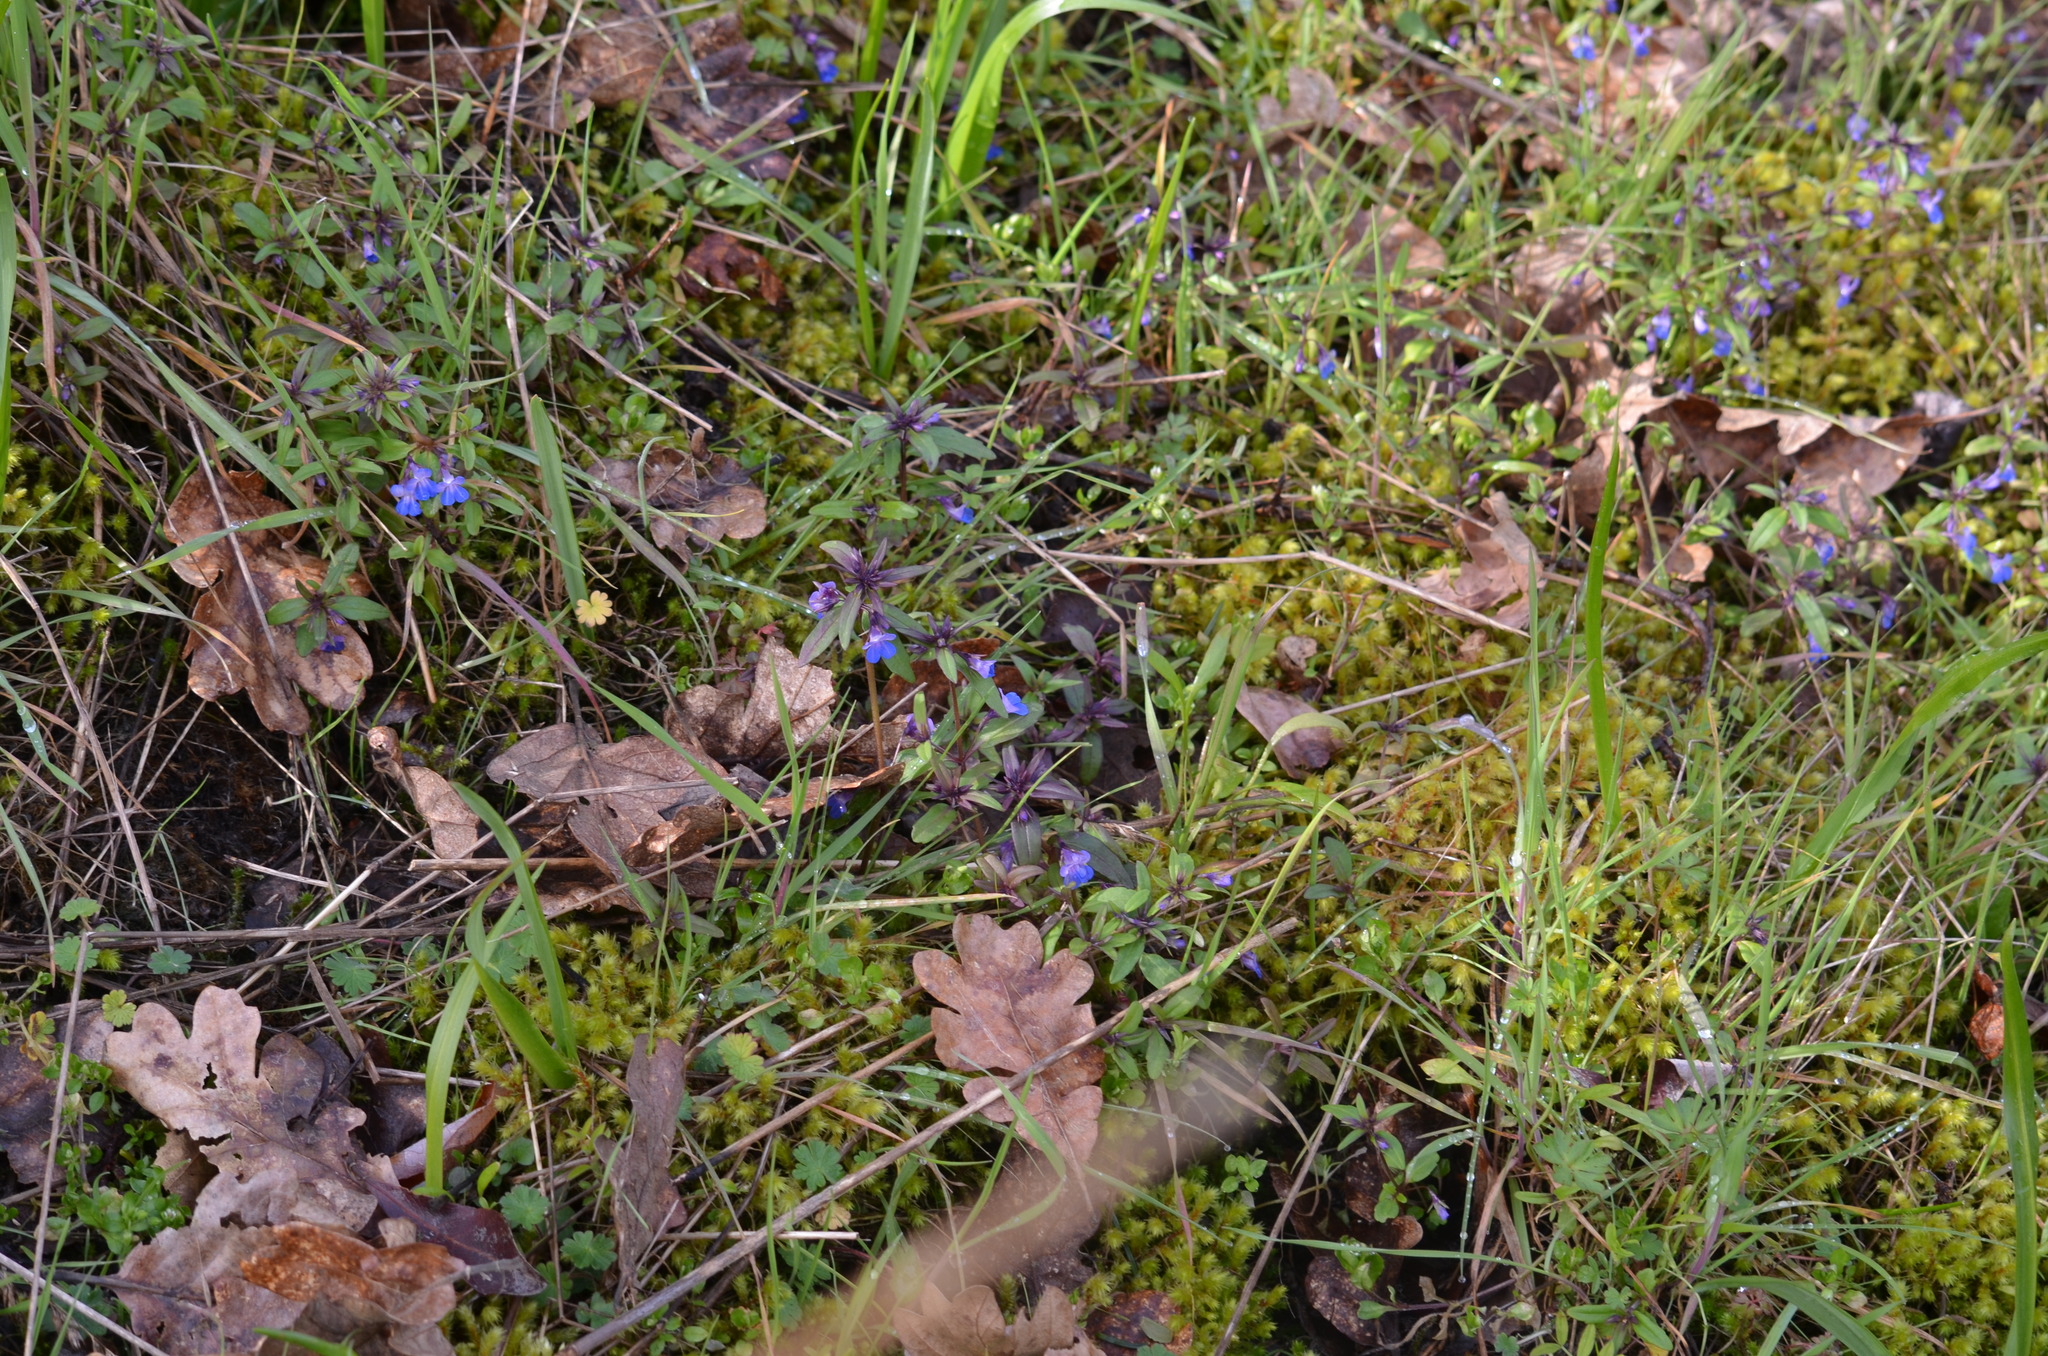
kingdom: Plantae
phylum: Bryophyta
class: Bryopsida
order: Hypnales
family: Hylocomiaceae
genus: Hylocomiadelphus
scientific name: Hylocomiadelphus triquetrus
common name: Rough goose neck moss
